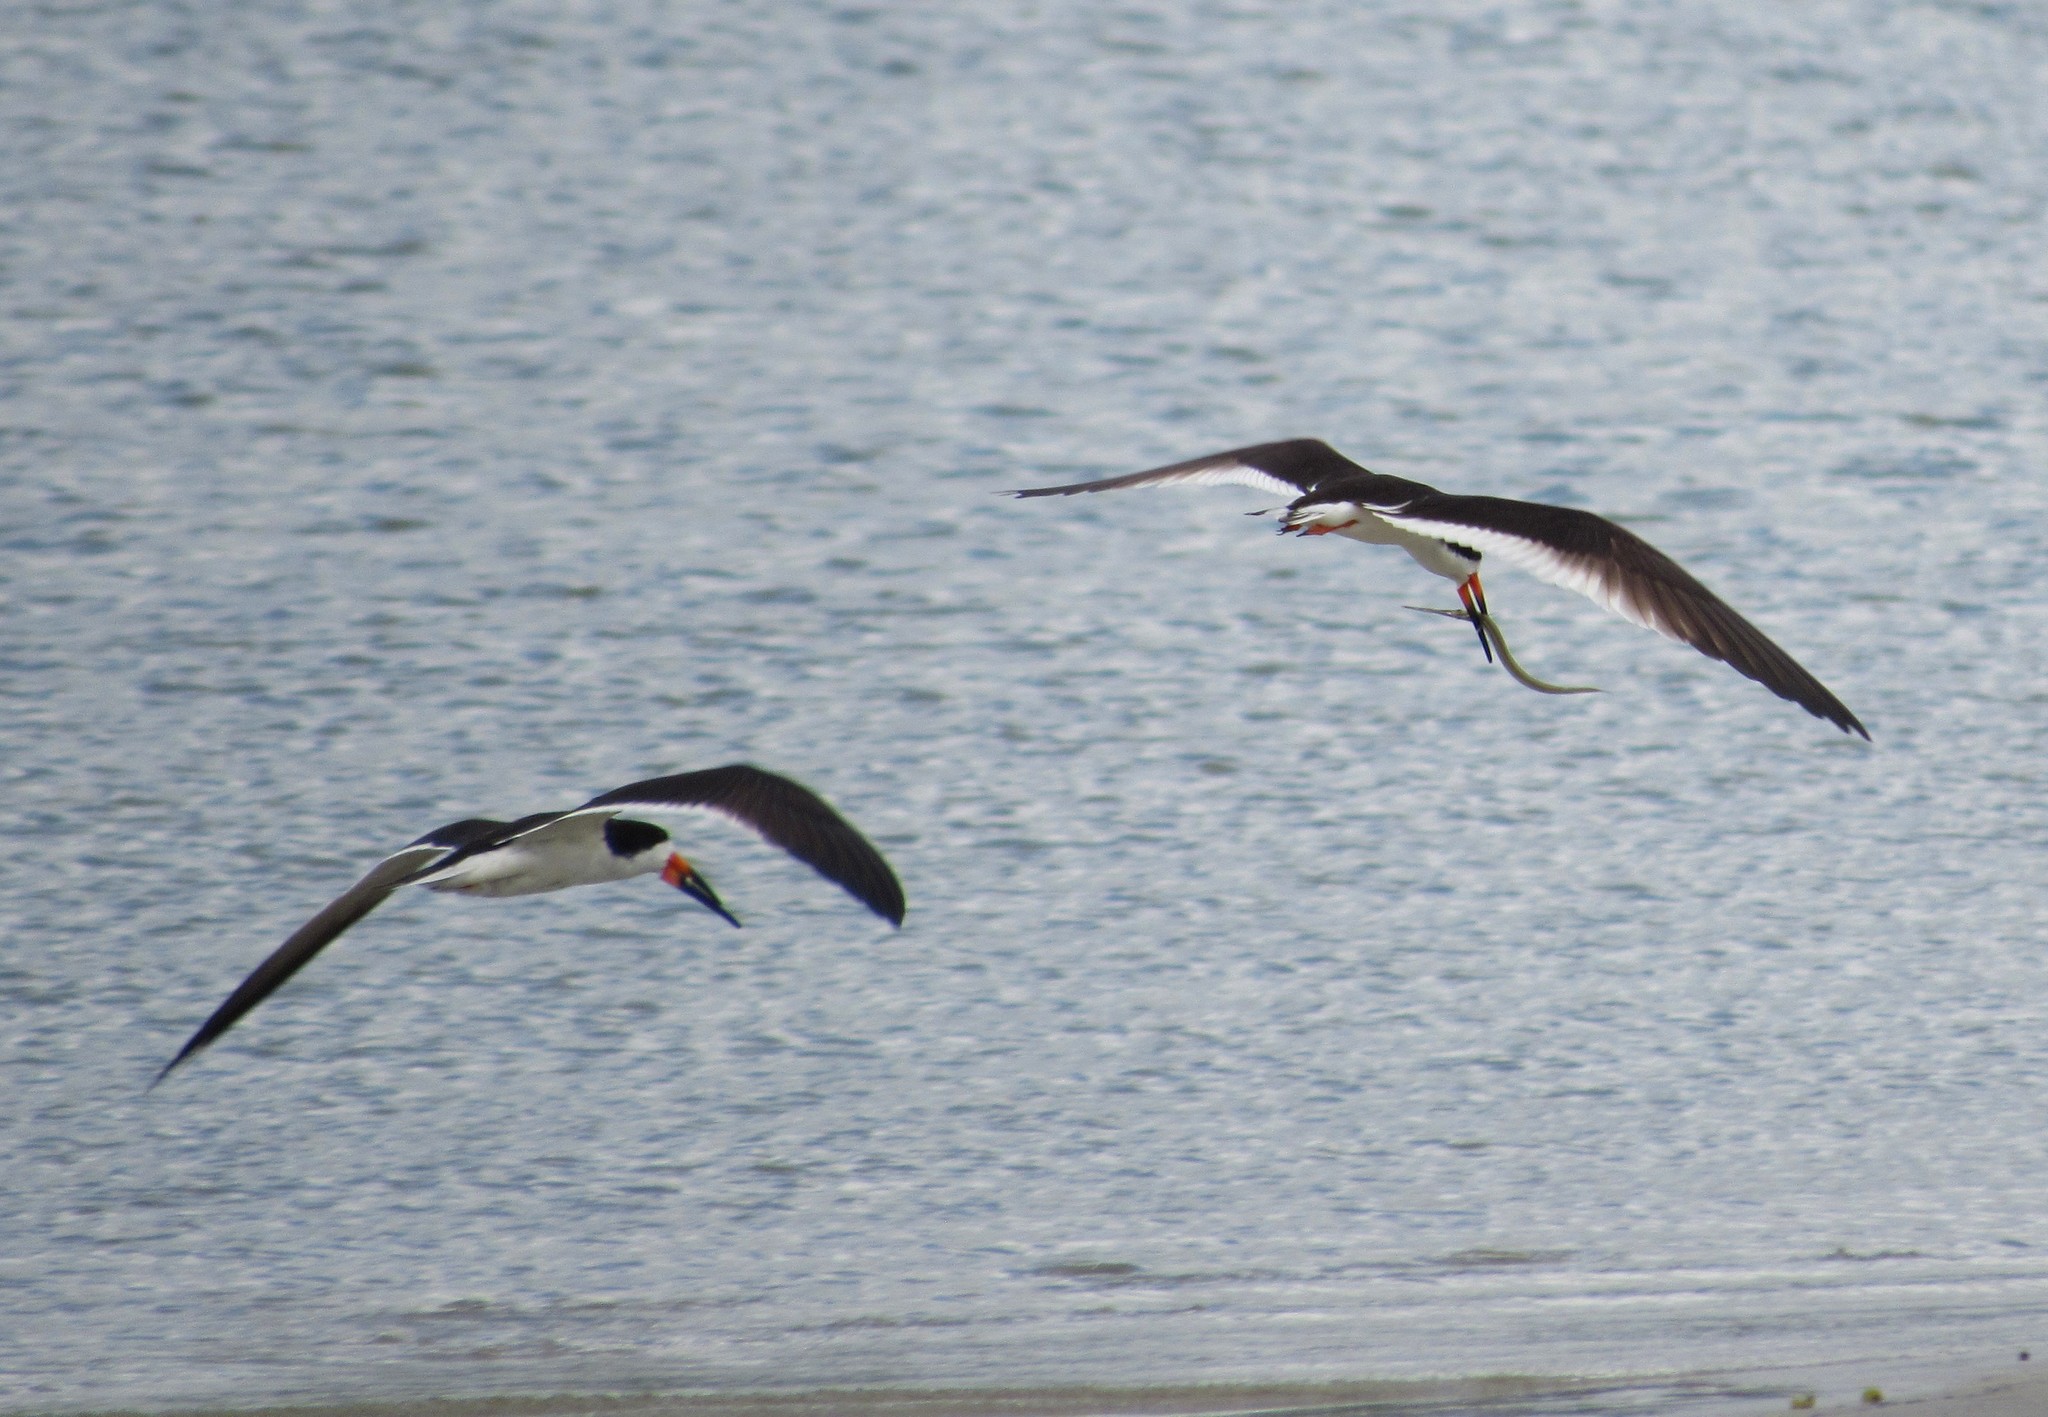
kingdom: Animalia
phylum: Chordata
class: Aves
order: Charadriiformes
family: Laridae
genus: Rynchops
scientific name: Rynchops niger
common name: Black skimmer
